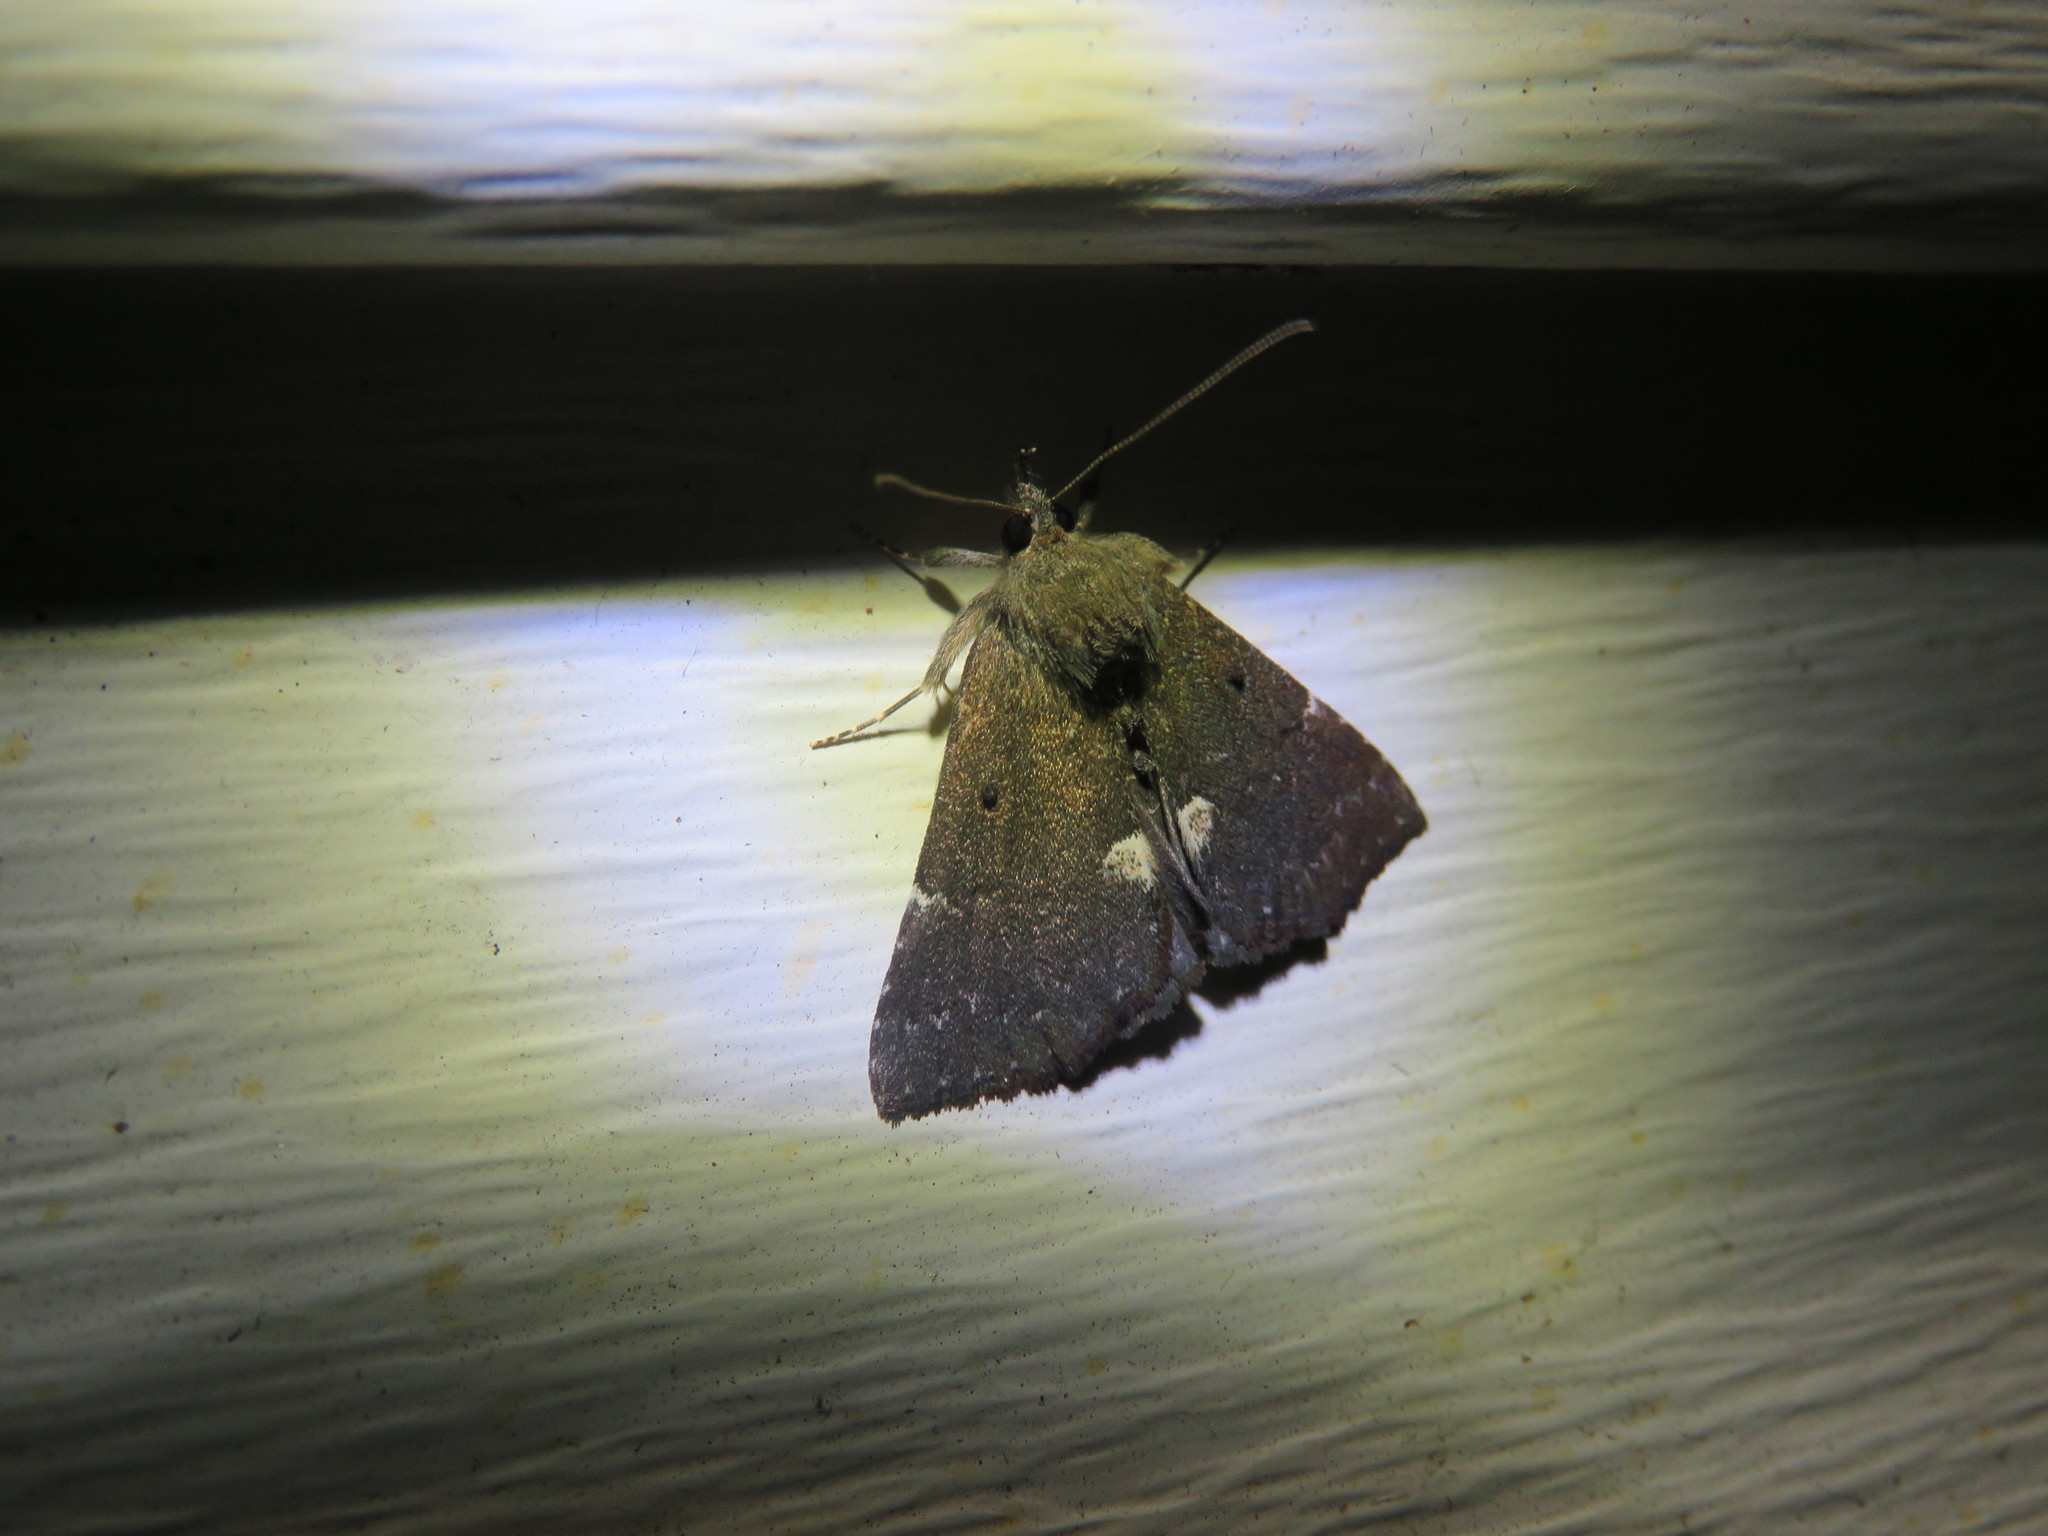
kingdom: Animalia
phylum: Arthropoda
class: Insecta
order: Lepidoptera
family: Erebidae
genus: Hypena
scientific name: Hypena bijugalis
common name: Dimorphic bomolocha moth
